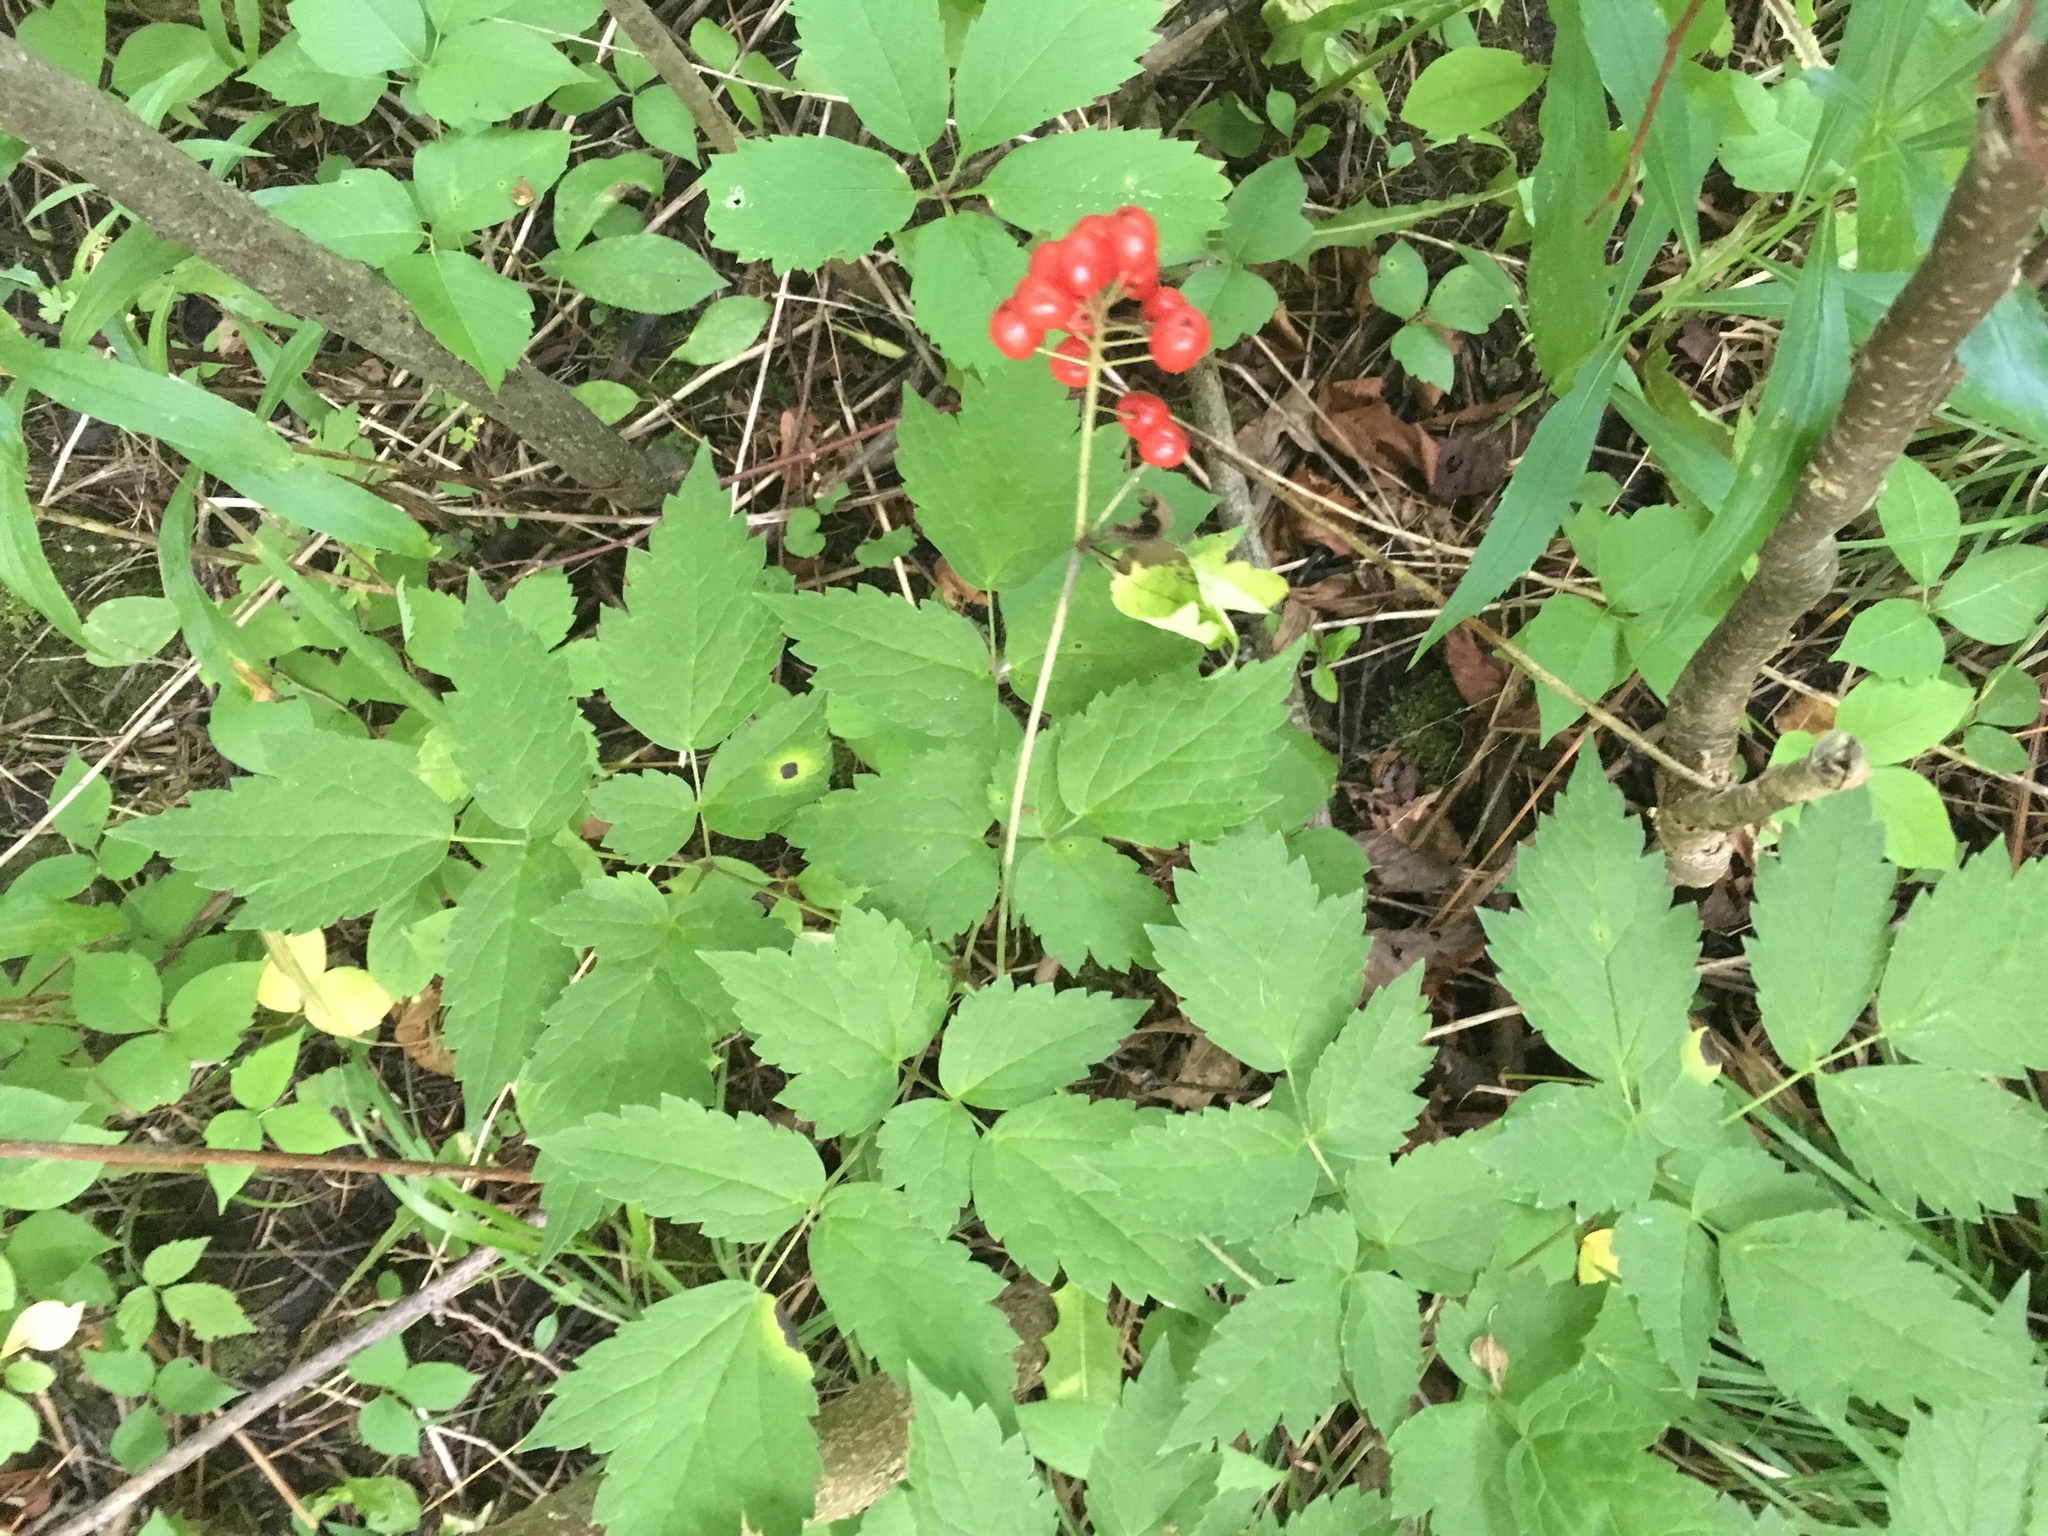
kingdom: Plantae
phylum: Tracheophyta
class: Magnoliopsida
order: Ranunculales
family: Ranunculaceae
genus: Actaea
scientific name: Actaea rubra
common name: Red baneberry
